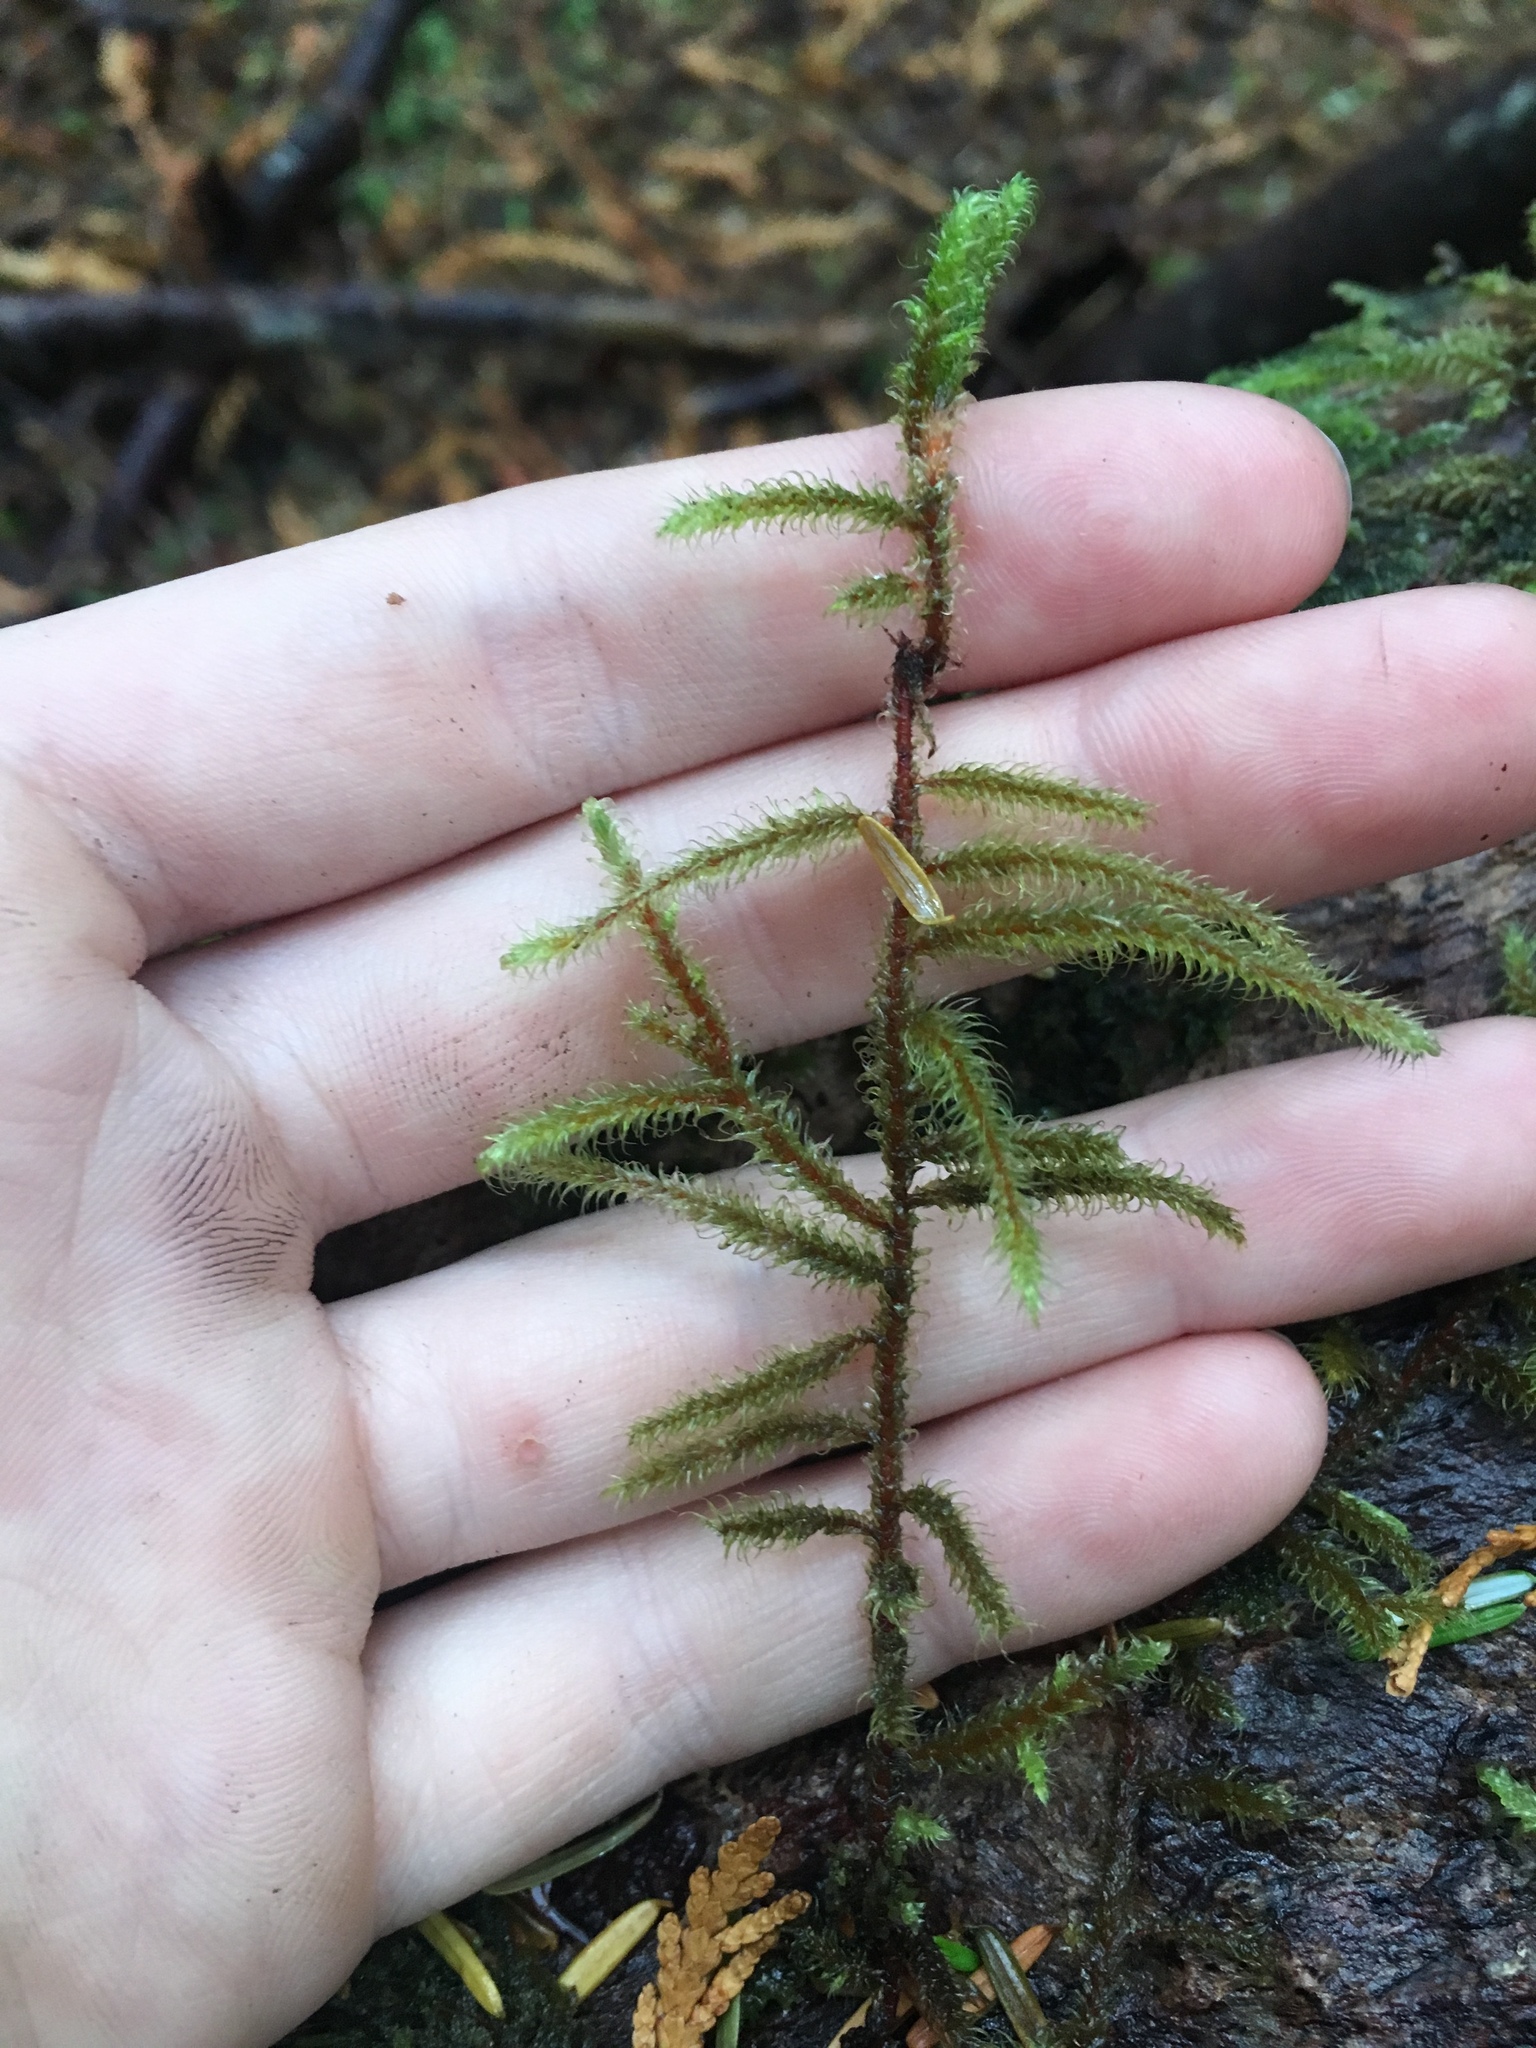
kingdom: Plantae
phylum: Bryophyta
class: Bryopsida
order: Hypnales
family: Hylocomiaceae
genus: Rhytidiadelphus
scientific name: Rhytidiadelphus loreus
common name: Lanky moss
